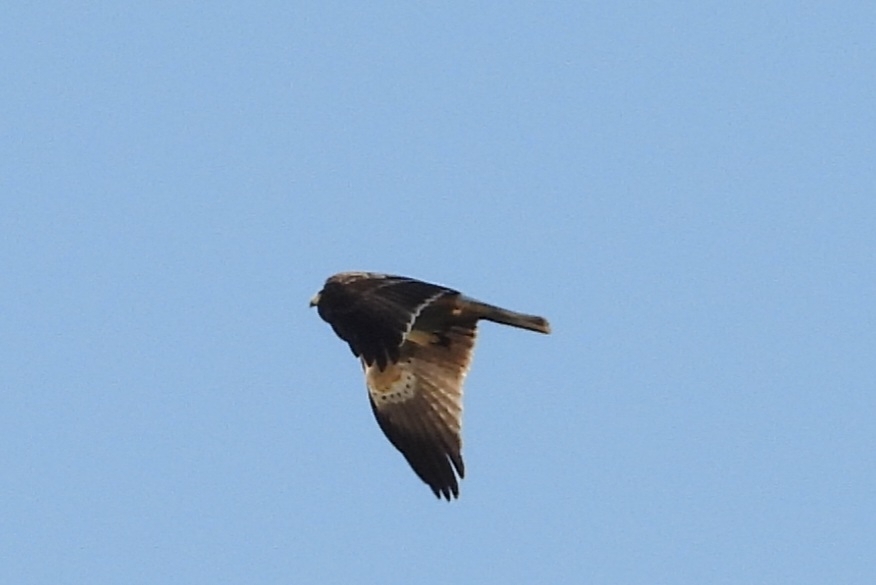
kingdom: Animalia
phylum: Chordata
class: Aves
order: Accipitriformes
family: Accipitridae
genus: Hieraaetus
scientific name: Hieraaetus pennatus
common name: Booted eagle
